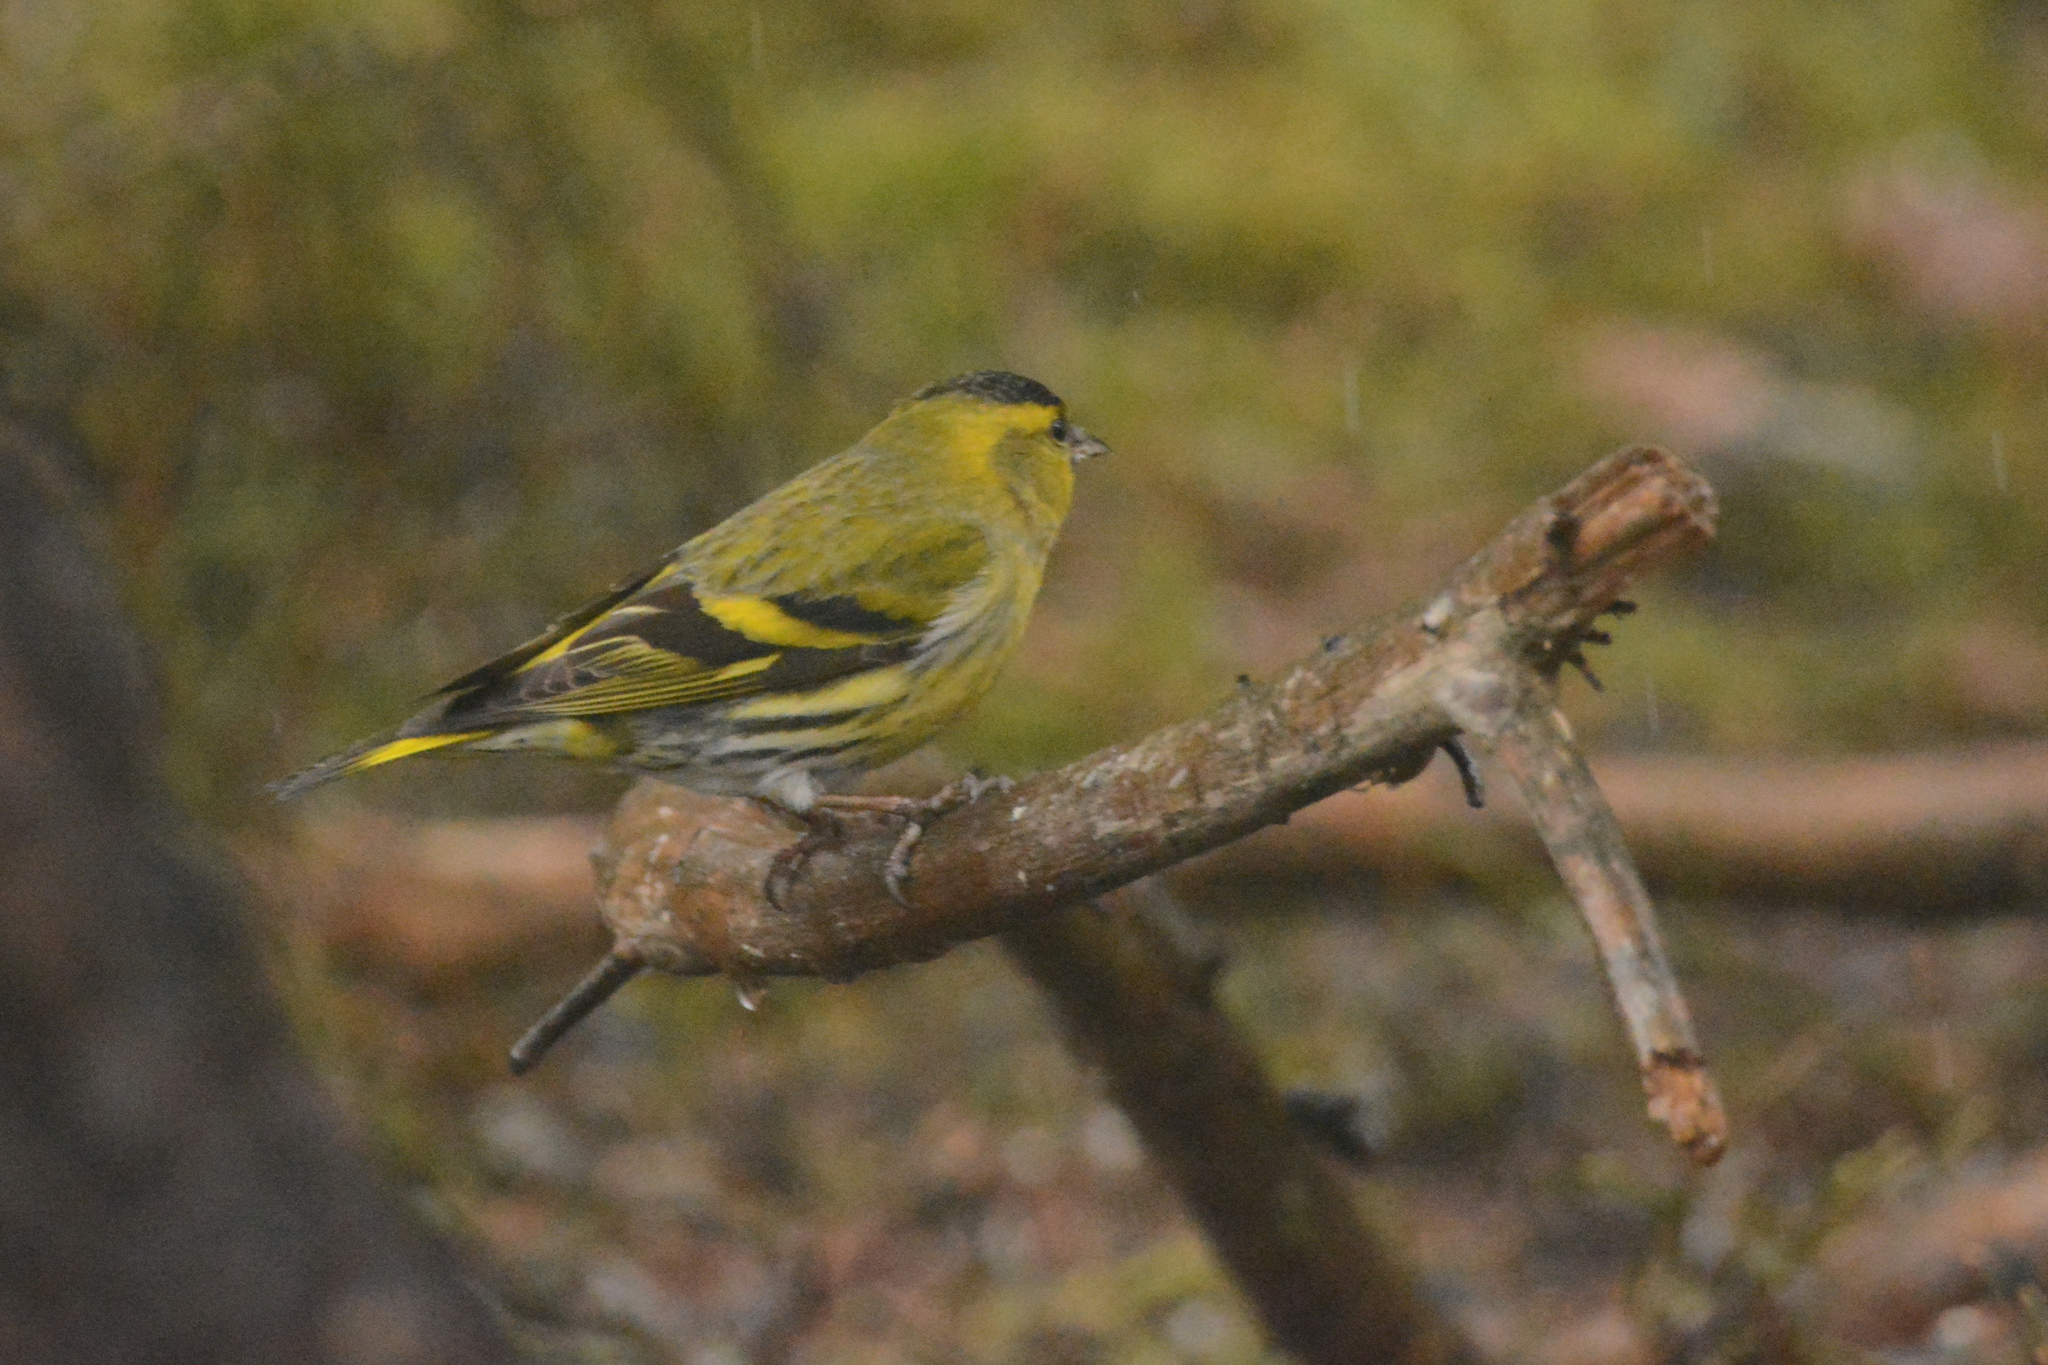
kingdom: Animalia
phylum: Chordata
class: Aves
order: Passeriformes
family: Fringillidae
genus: Spinus
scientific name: Spinus spinus
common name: Eurasian siskin
